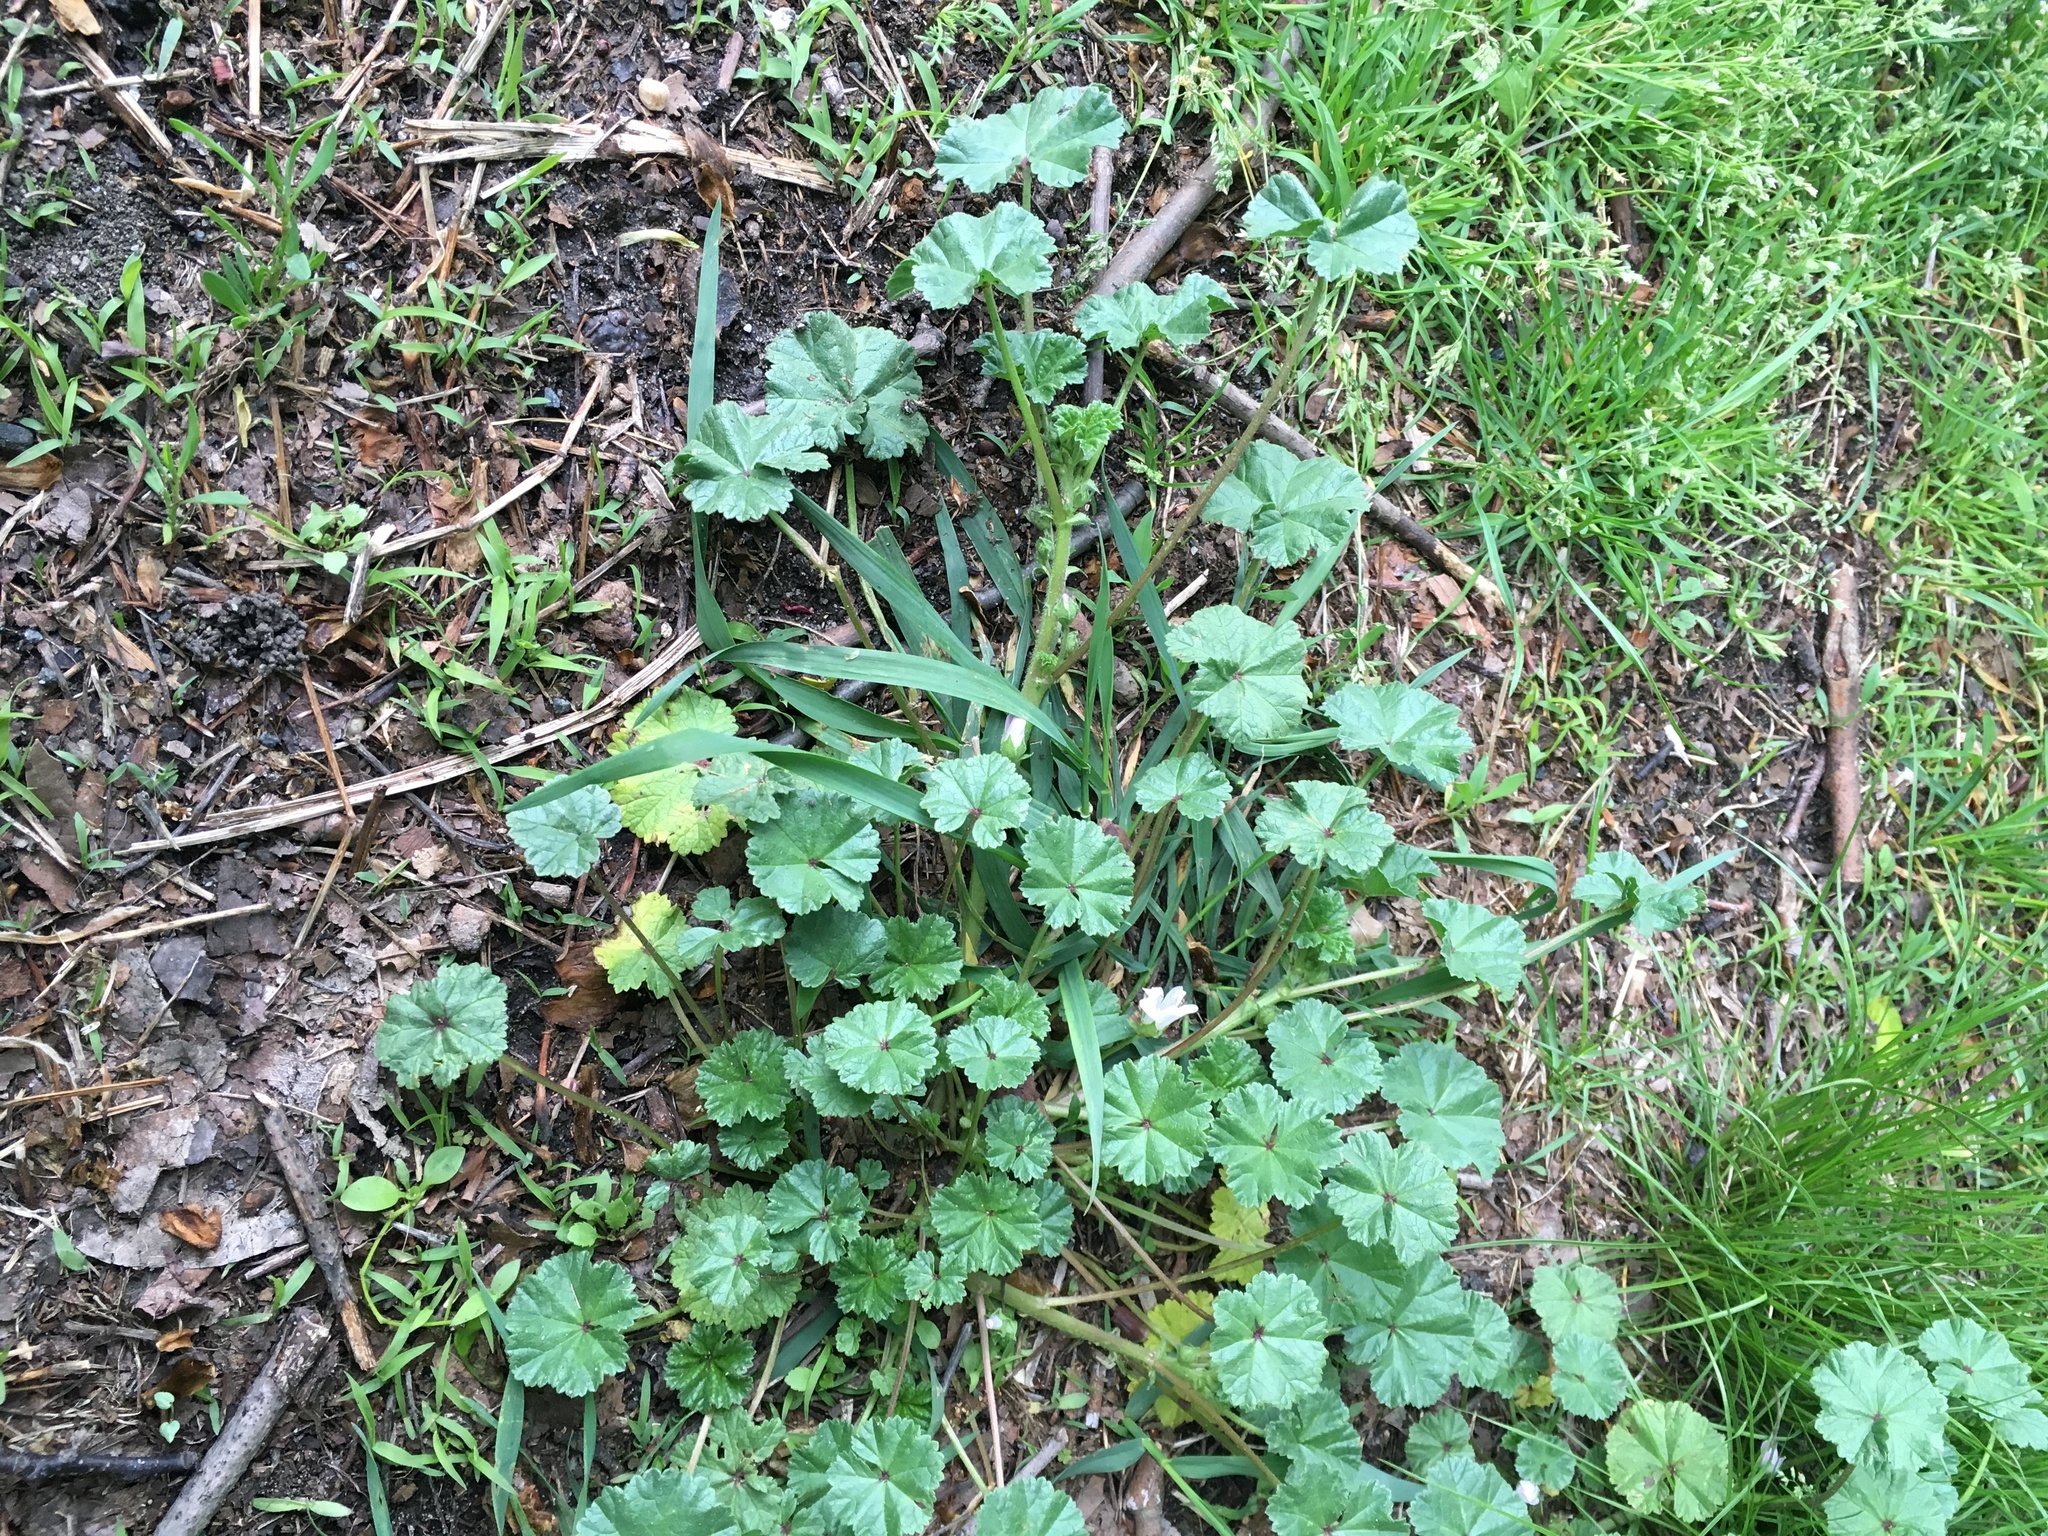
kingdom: Plantae
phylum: Tracheophyta
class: Magnoliopsida
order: Malvales
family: Malvaceae
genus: Malva
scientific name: Malva neglecta
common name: Common mallow
